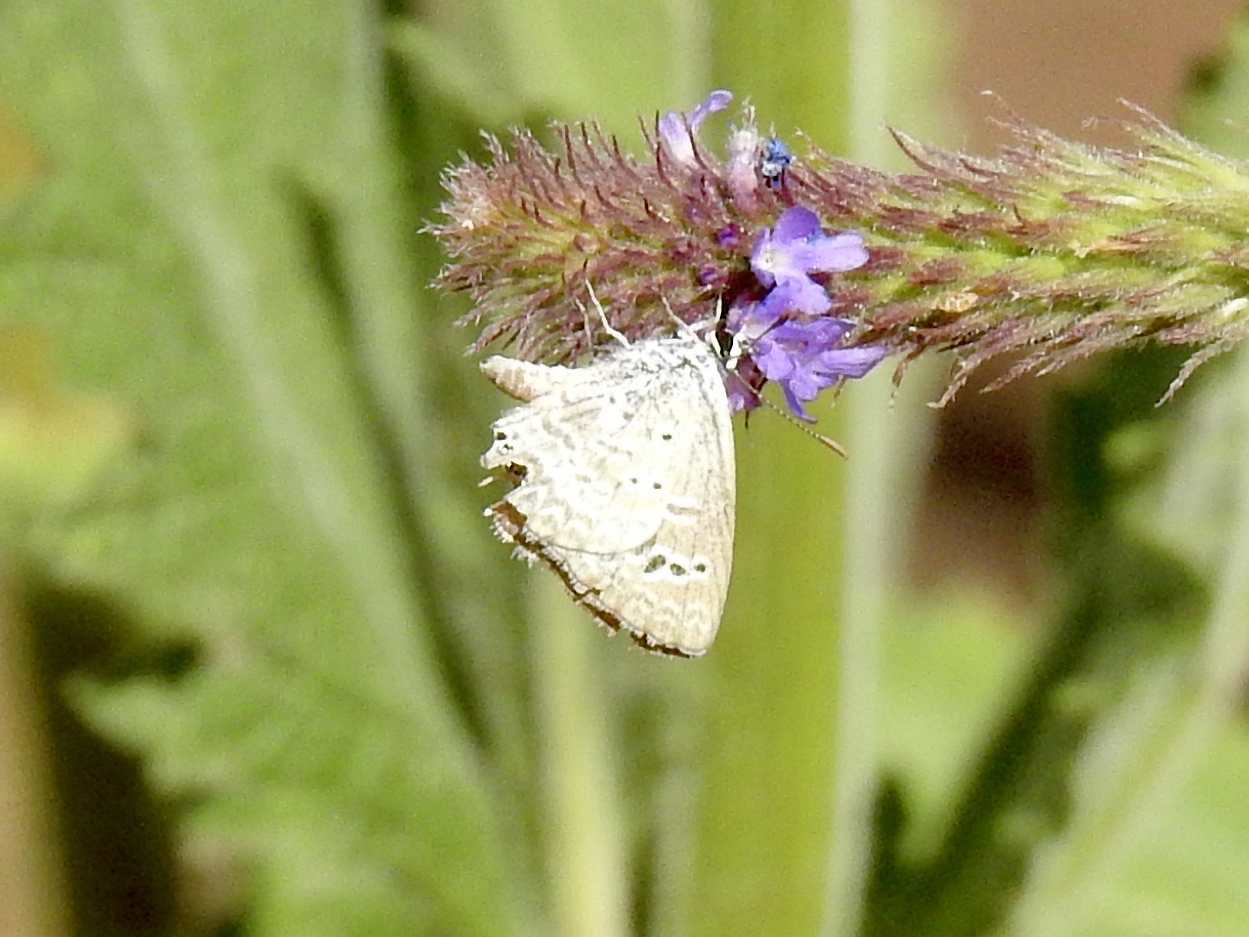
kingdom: Animalia
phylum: Arthropoda
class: Insecta
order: Lepidoptera
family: Lycaenidae
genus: Echinargus
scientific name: Echinargus isola
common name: Reakirt's blue
